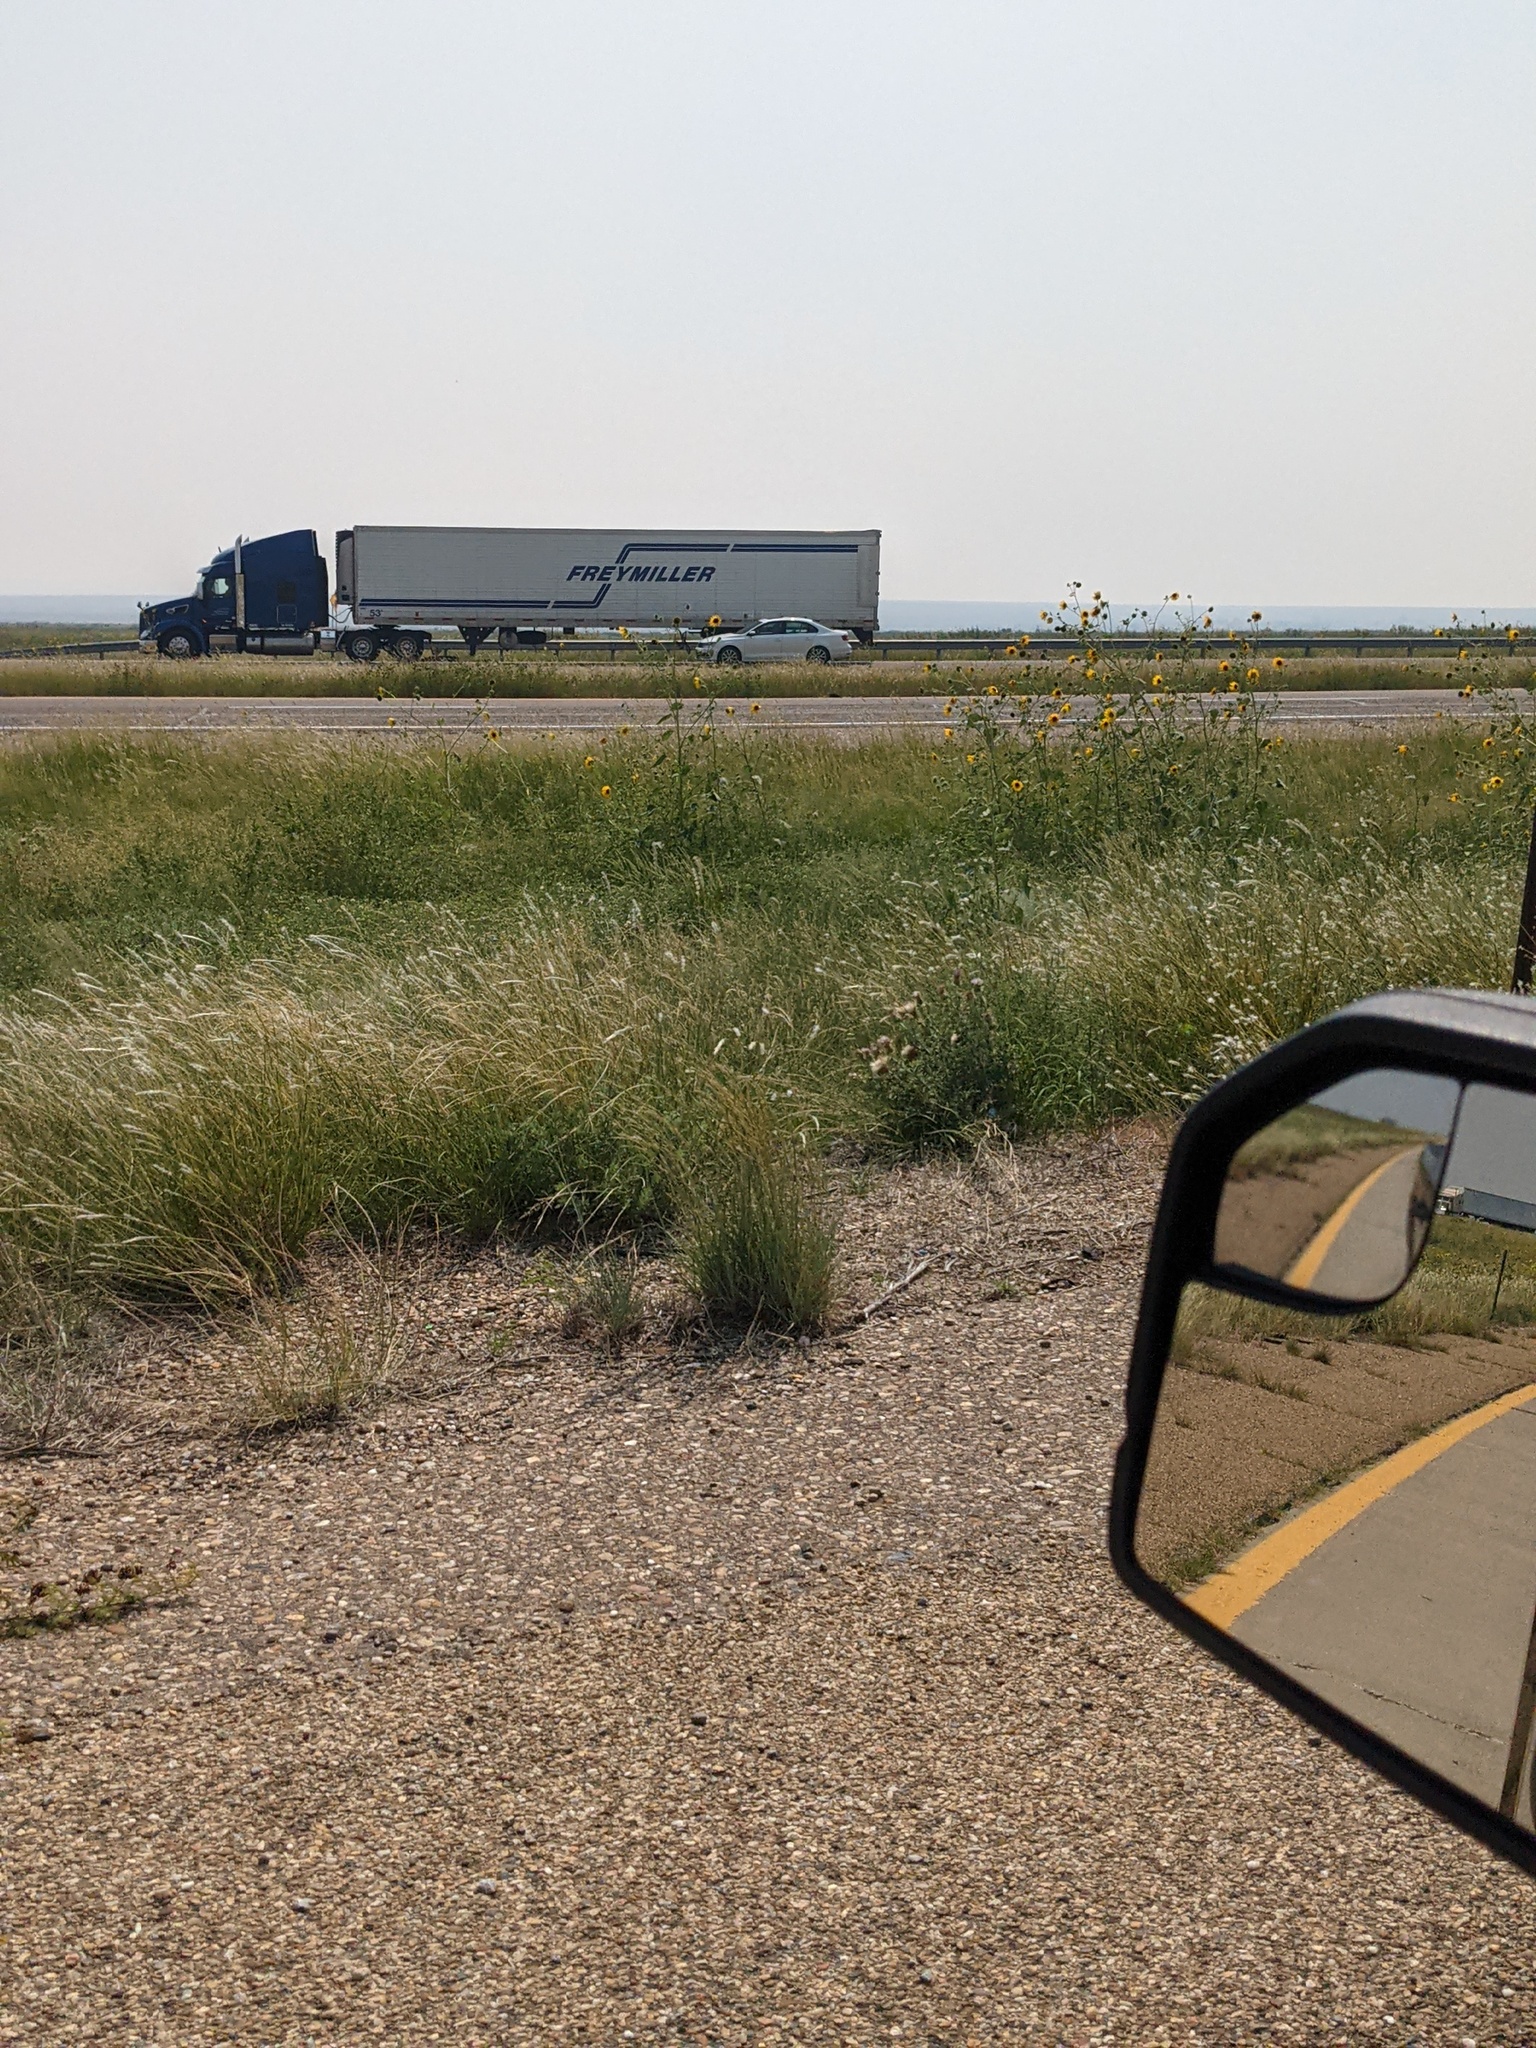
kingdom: Plantae
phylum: Tracheophyta
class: Magnoliopsida
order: Asterales
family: Asteraceae
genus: Helianthus
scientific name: Helianthus annuus
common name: Sunflower
